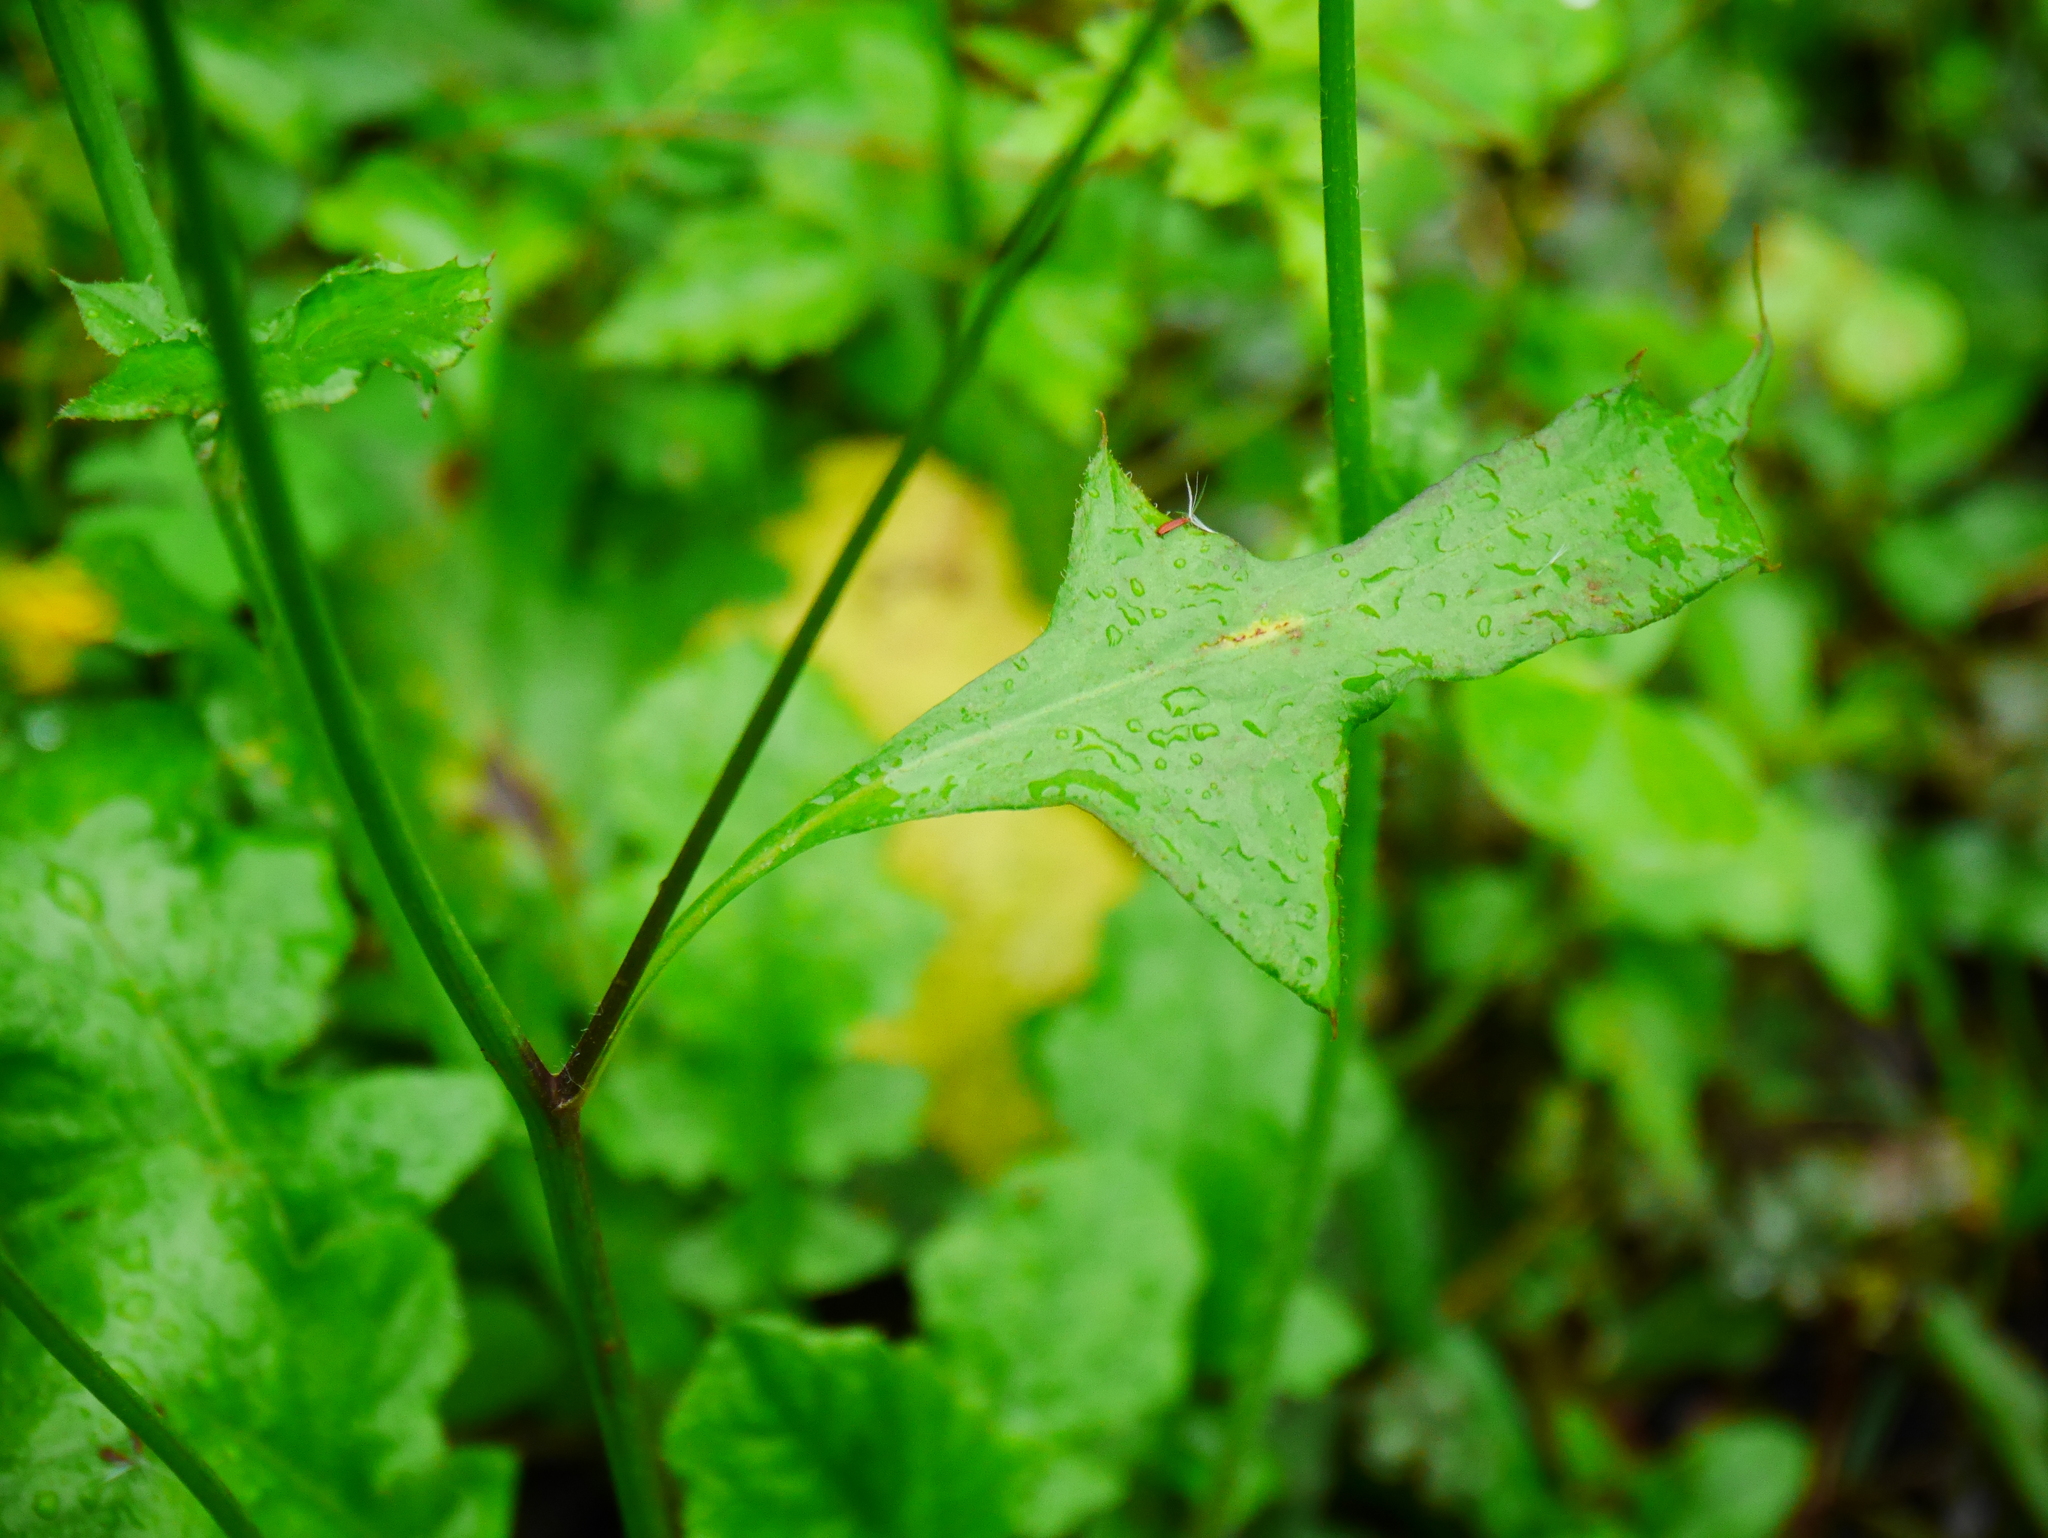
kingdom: Plantae
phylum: Tracheophyta
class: Magnoliopsida
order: Asterales
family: Asteraceae
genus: Youngia
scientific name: Youngia japonica
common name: Oriental false hawksbeard
